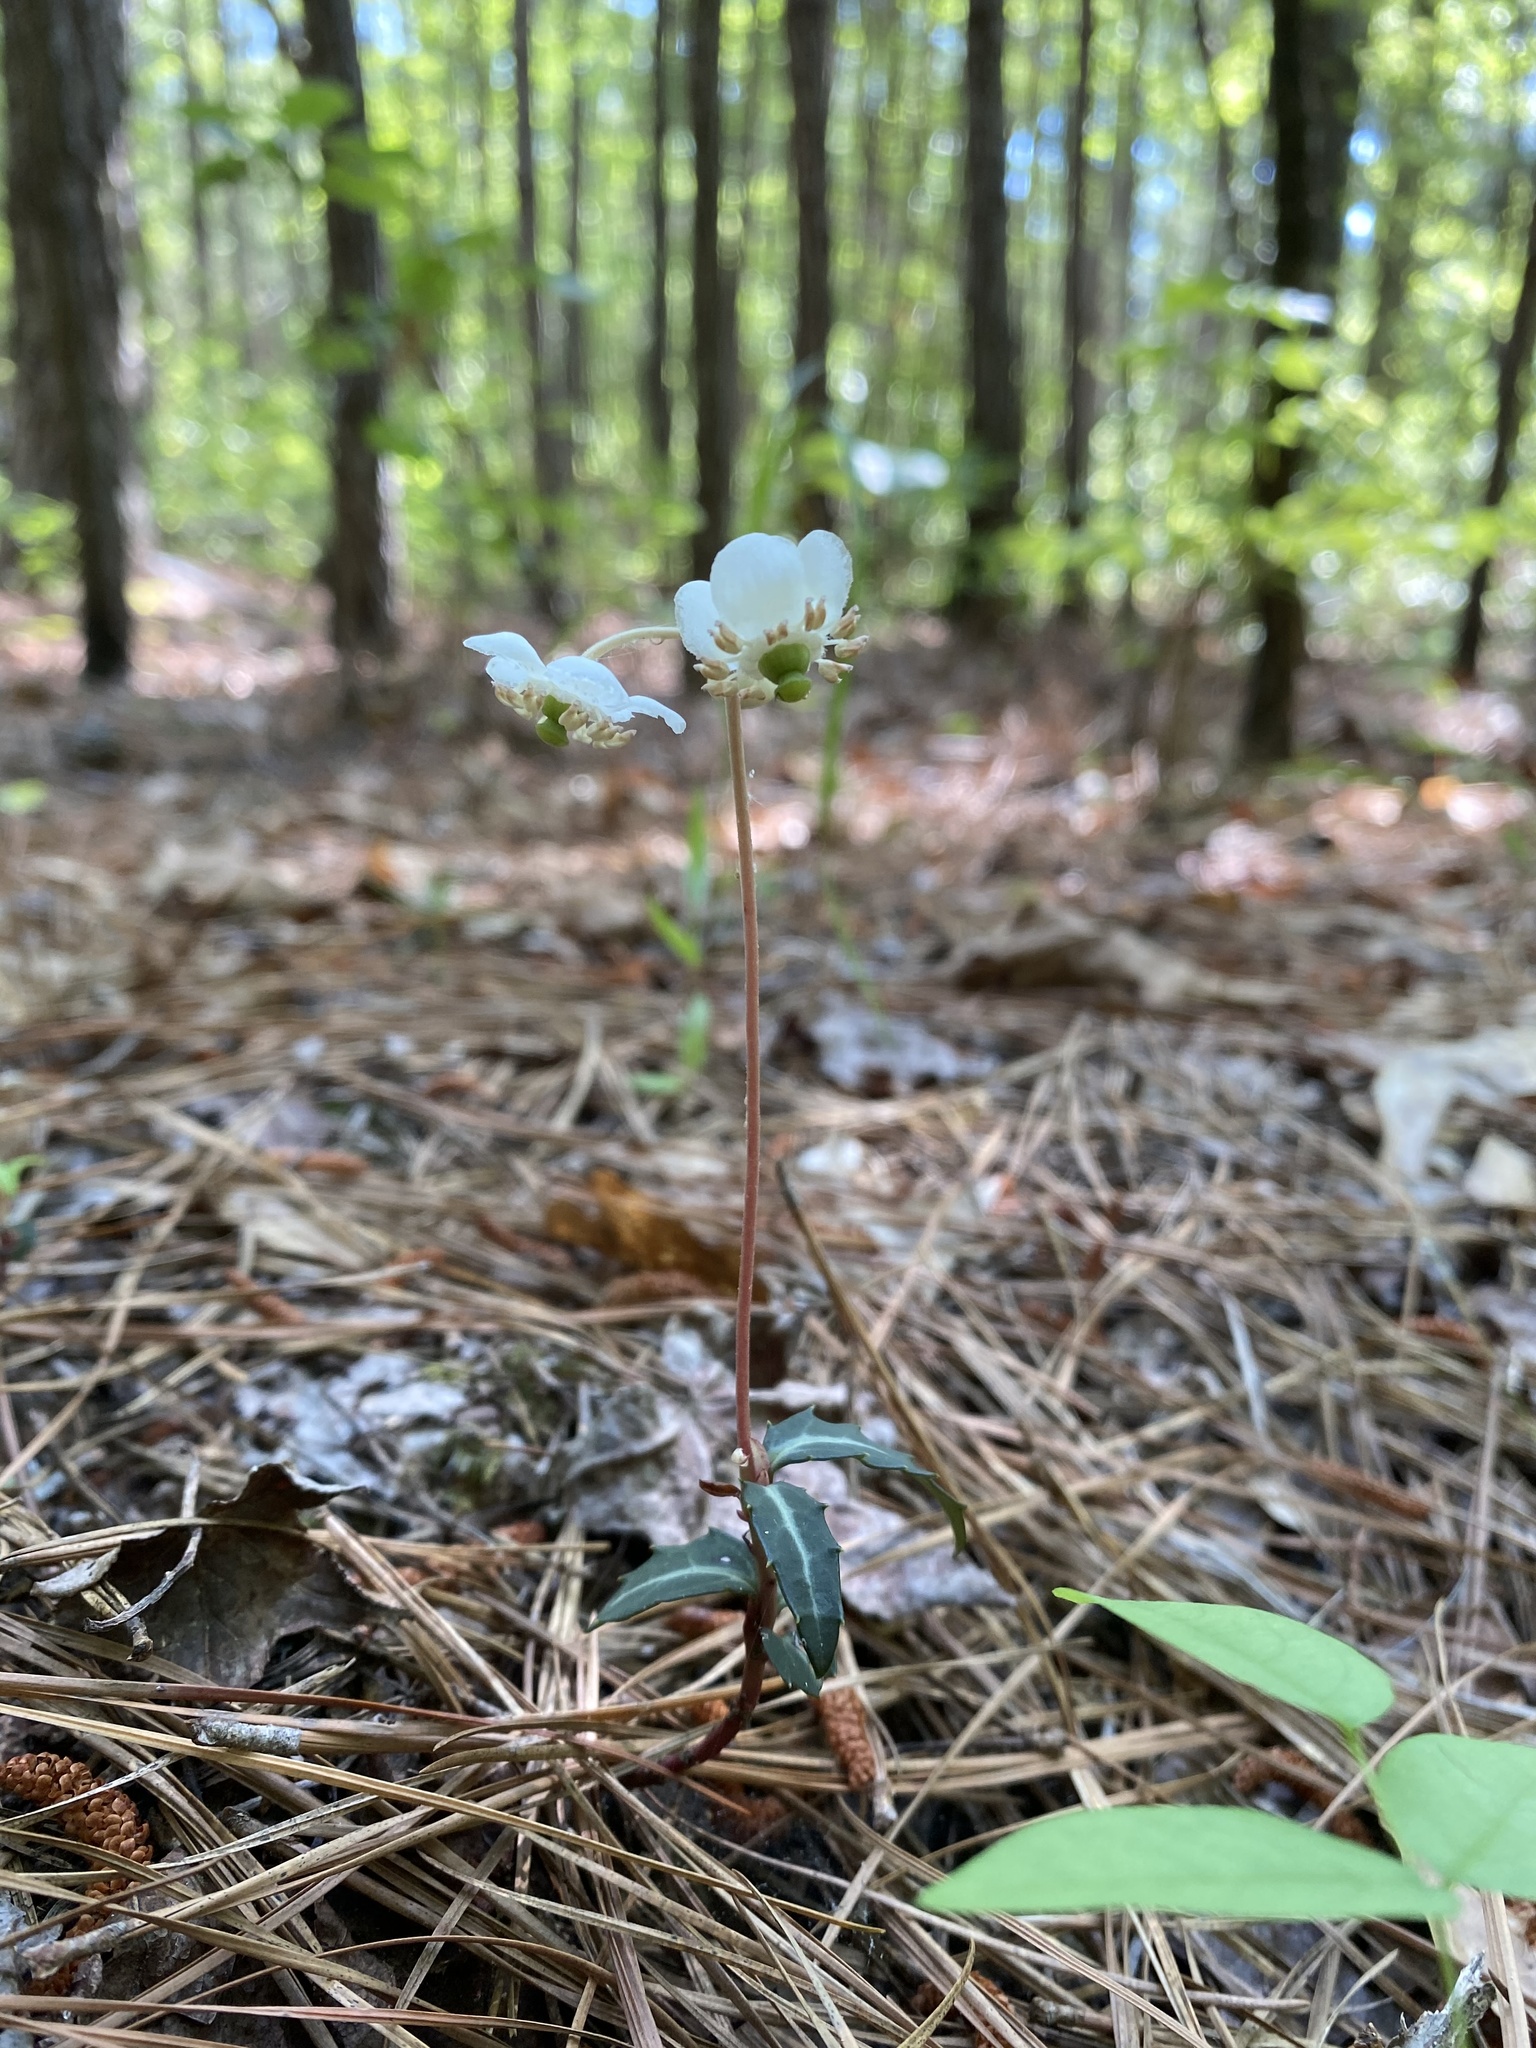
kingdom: Plantae
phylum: Tracheophyta
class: Magnoliopsida
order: Ericales
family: Ericaceae
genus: Chimaphila
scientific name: Chimaphila maculata
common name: Spotted pipsissewa
